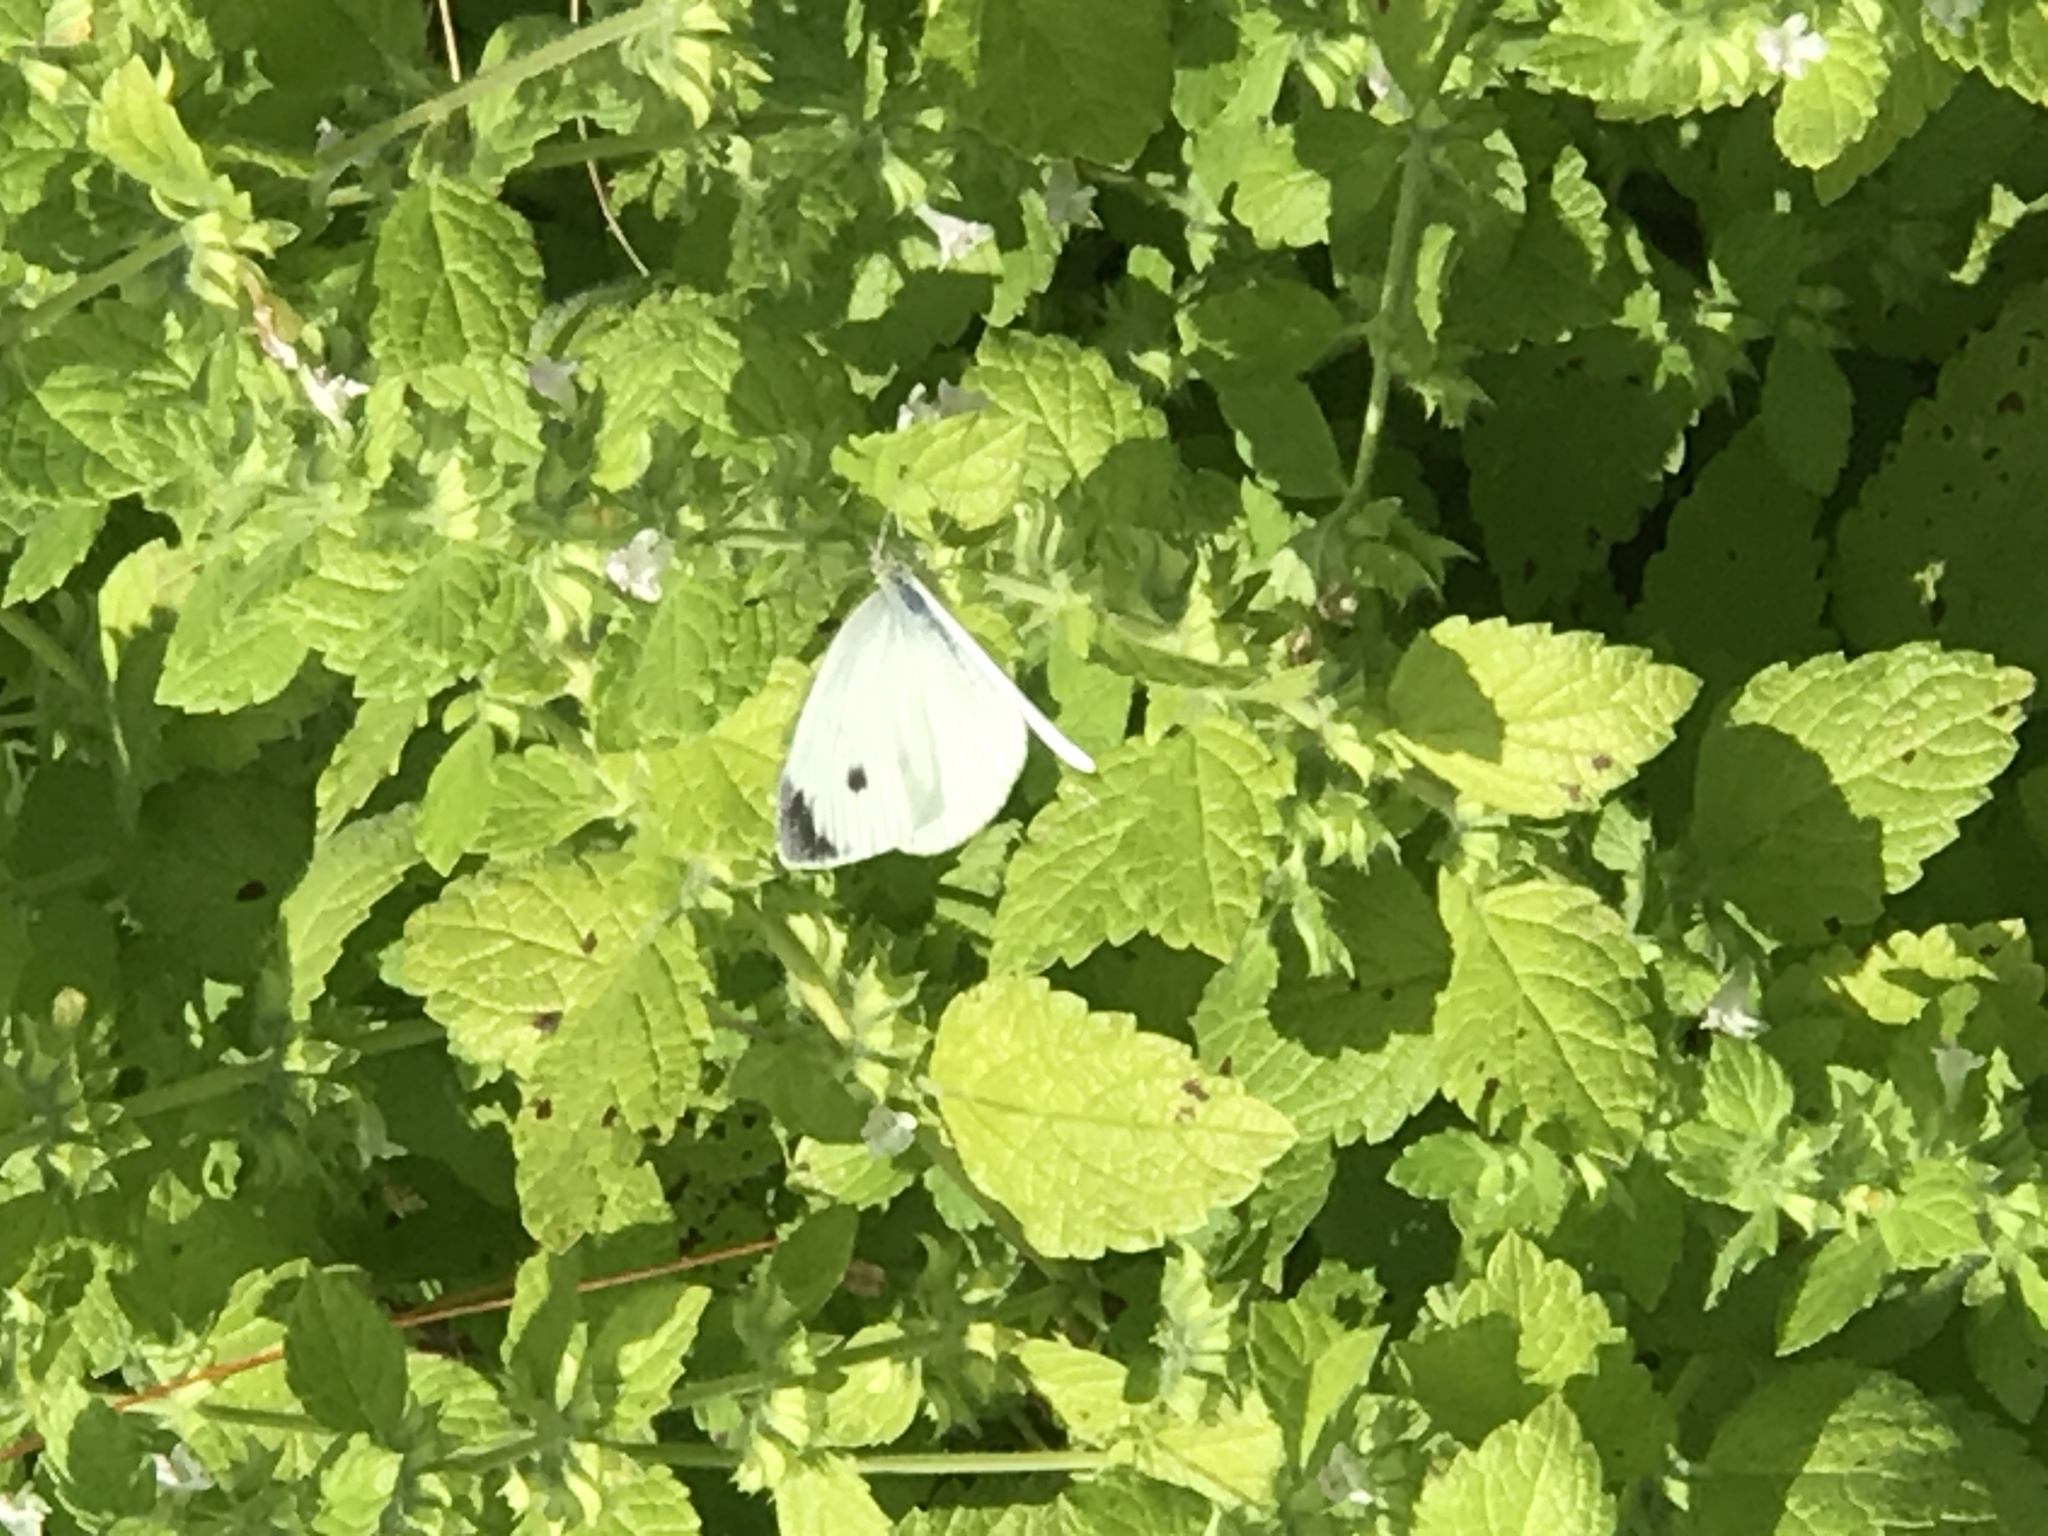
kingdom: Animalia
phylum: Arthropoda
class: Insecta
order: Lepidoptera
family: Pieridae
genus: Pieris
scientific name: Pieris rapae
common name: Small white
